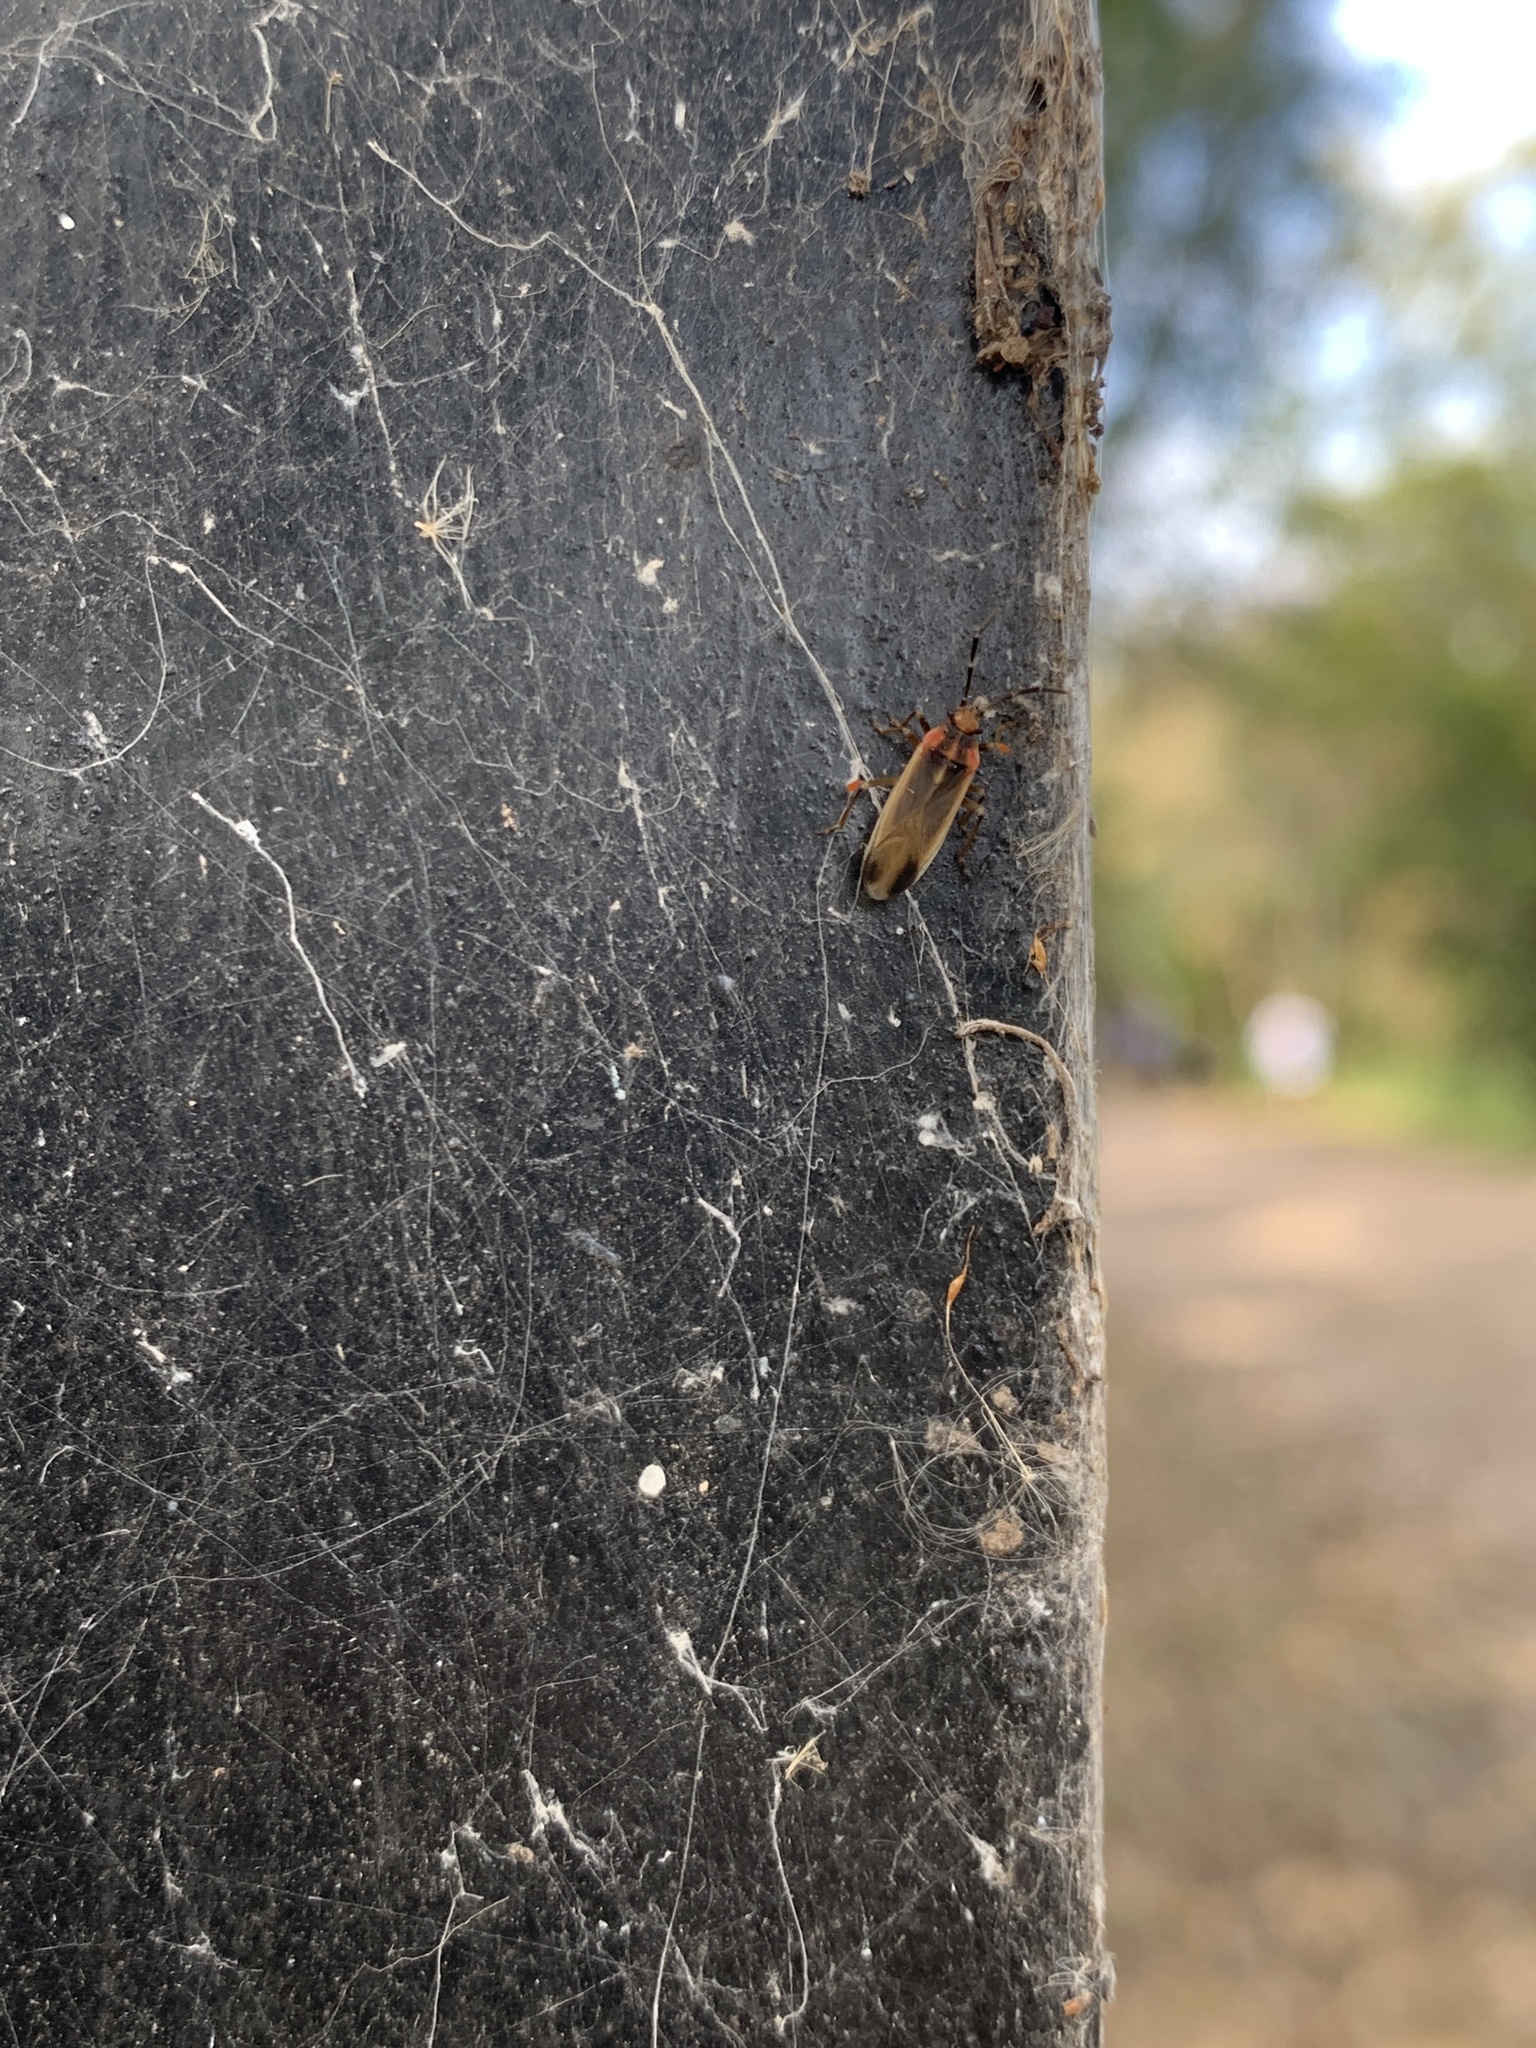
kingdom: Animalia
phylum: Arthropoda
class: Insecta
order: Hemiptera
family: Lygaeidae
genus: Acroleucus
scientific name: Acroleucus coxalis
